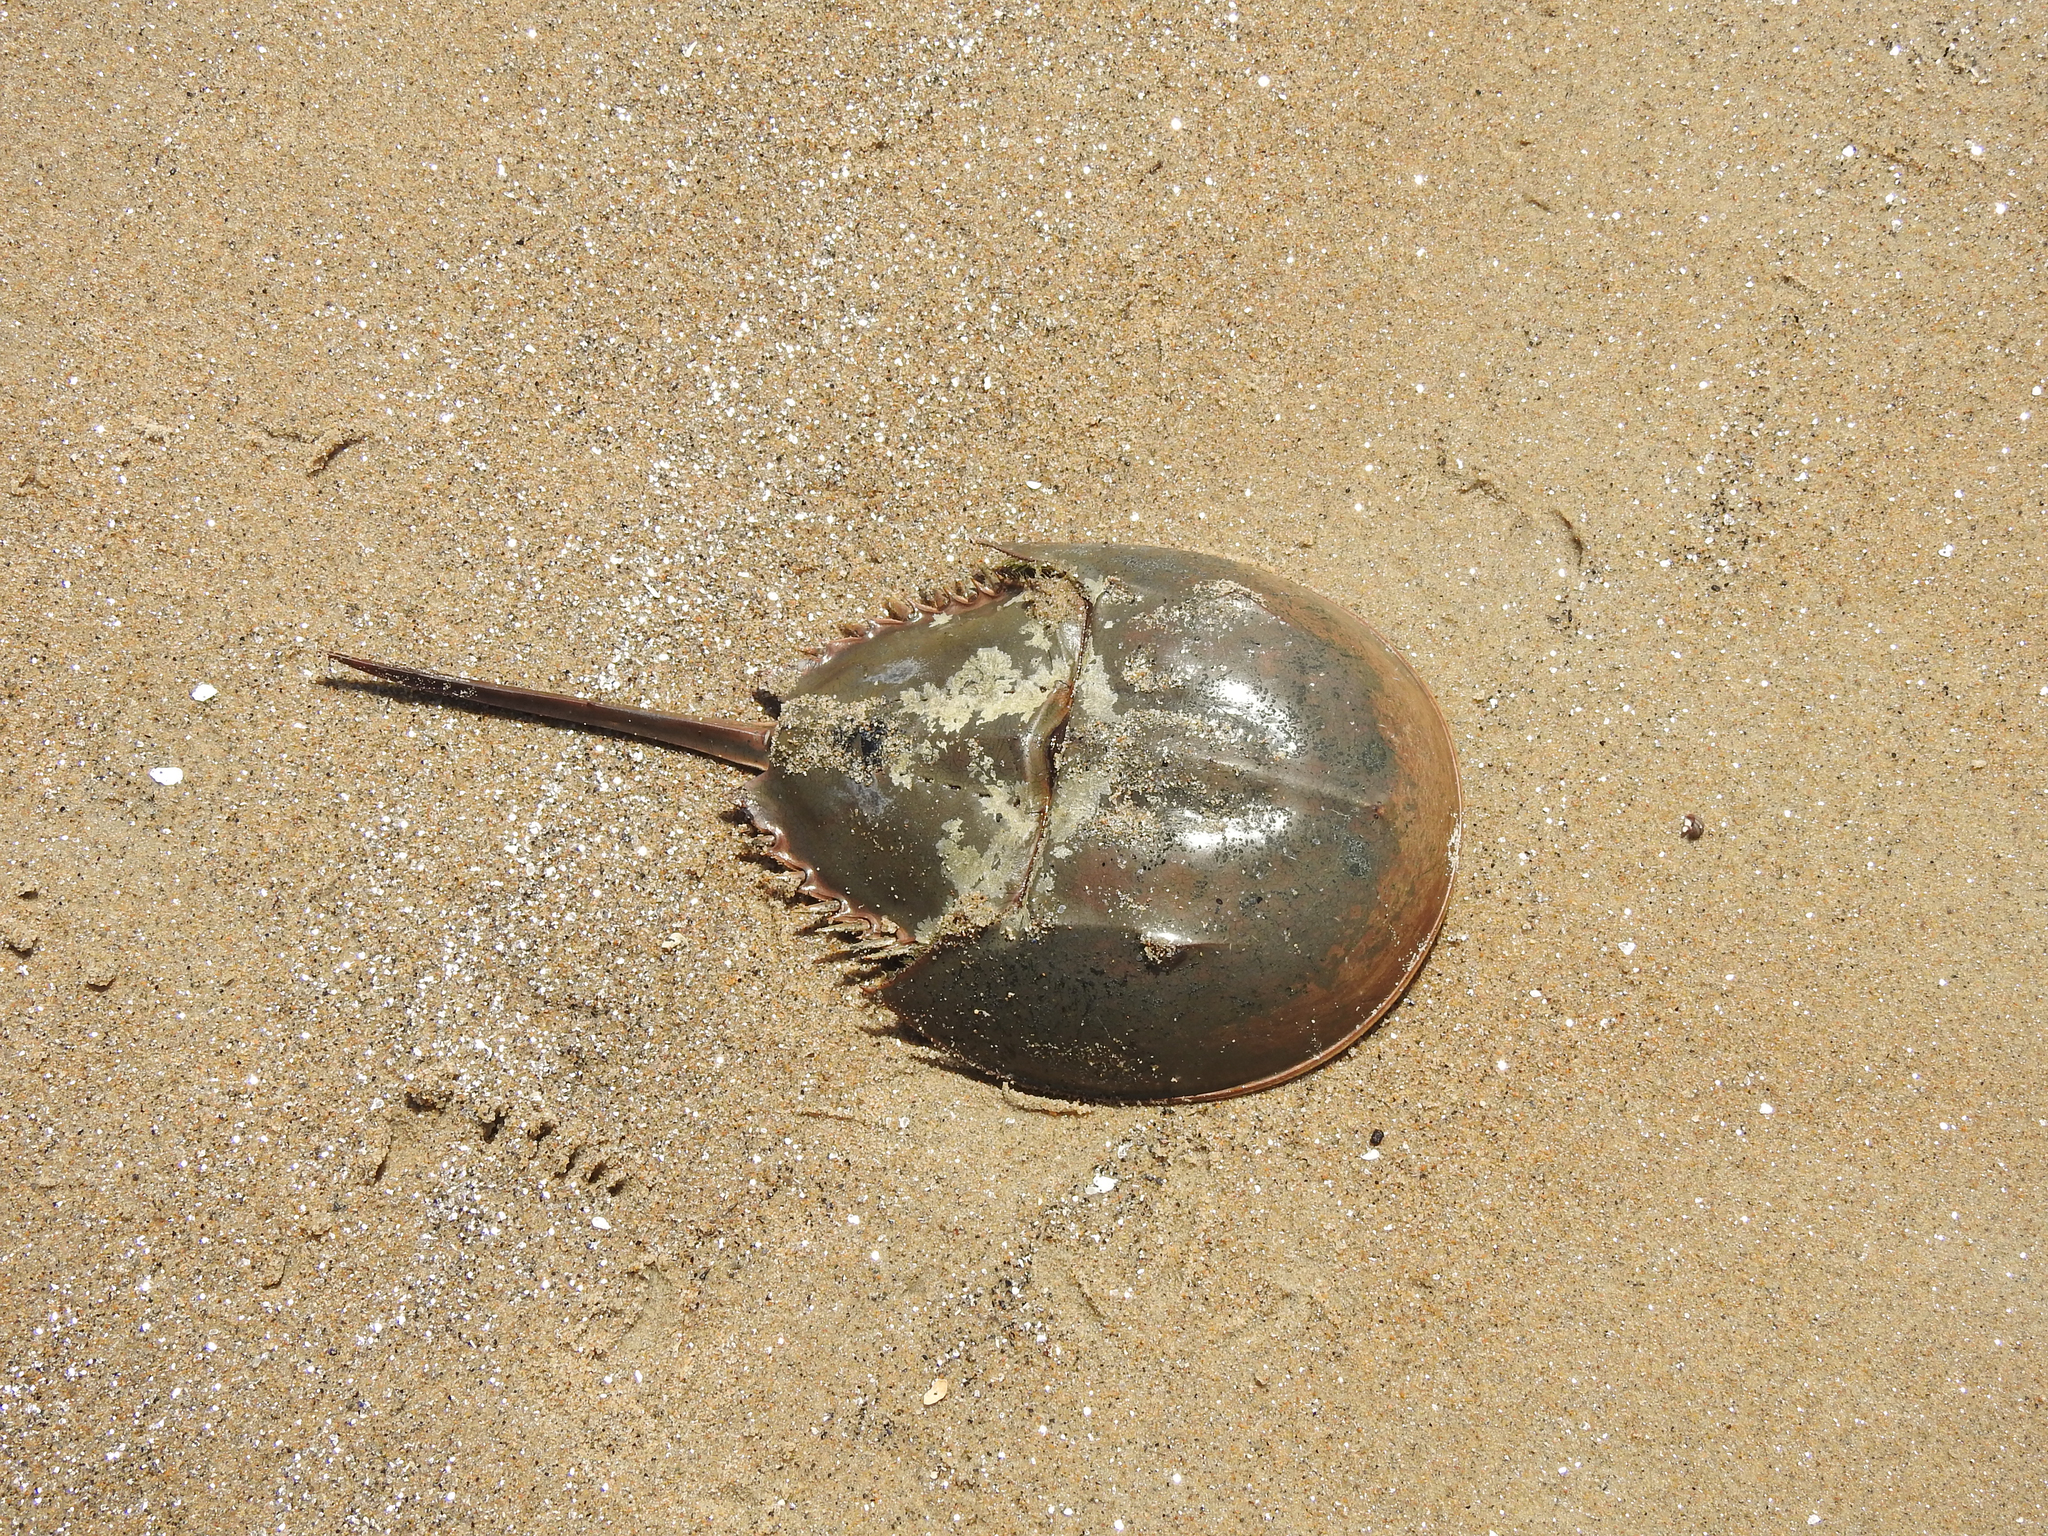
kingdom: Animalia
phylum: Arthropoda
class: Merostomata
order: Xiphosurida
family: Limulidae
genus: Limulus
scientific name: Limulus polyphemus
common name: Horseshoe crab
